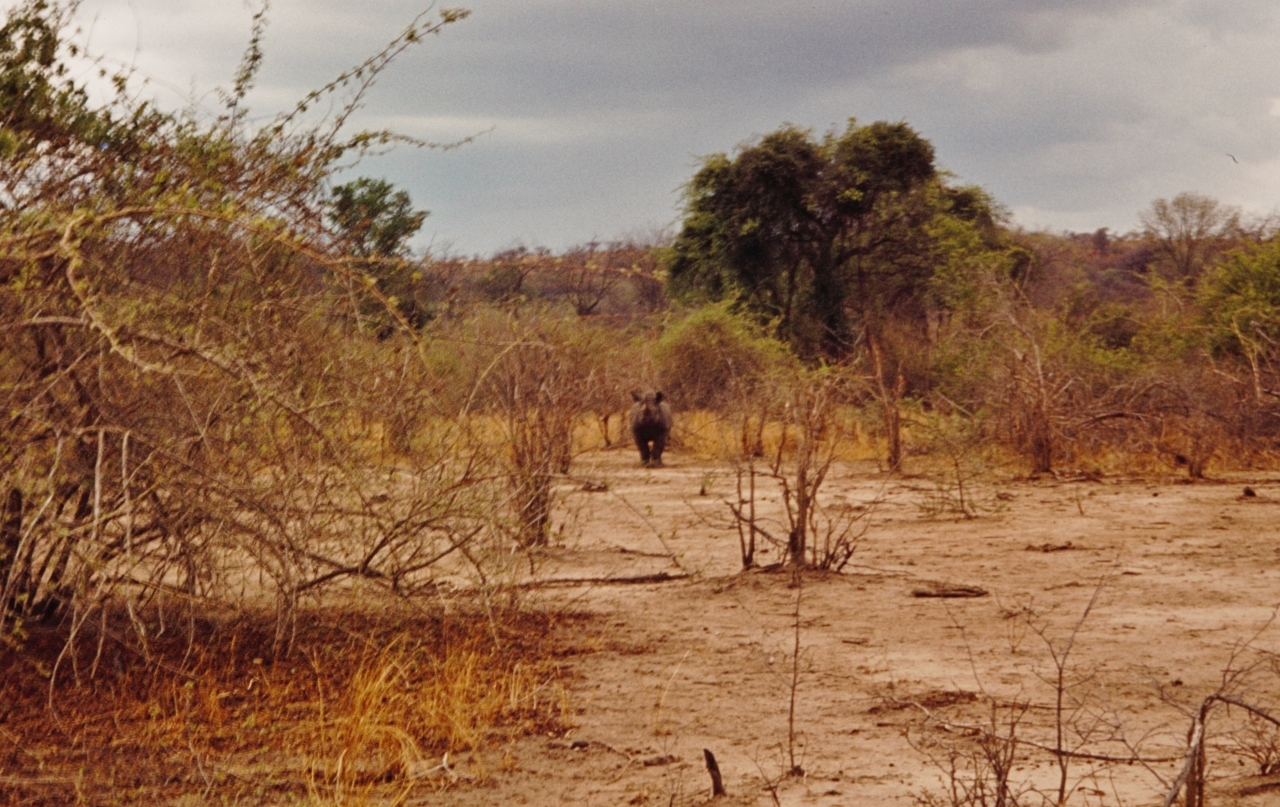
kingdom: Animalia
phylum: Chordata
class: Mammalia
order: Perissodactyla
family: Rhinocerotidae
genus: Diceros
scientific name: Diceros bicornis
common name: Black rhinoceros
